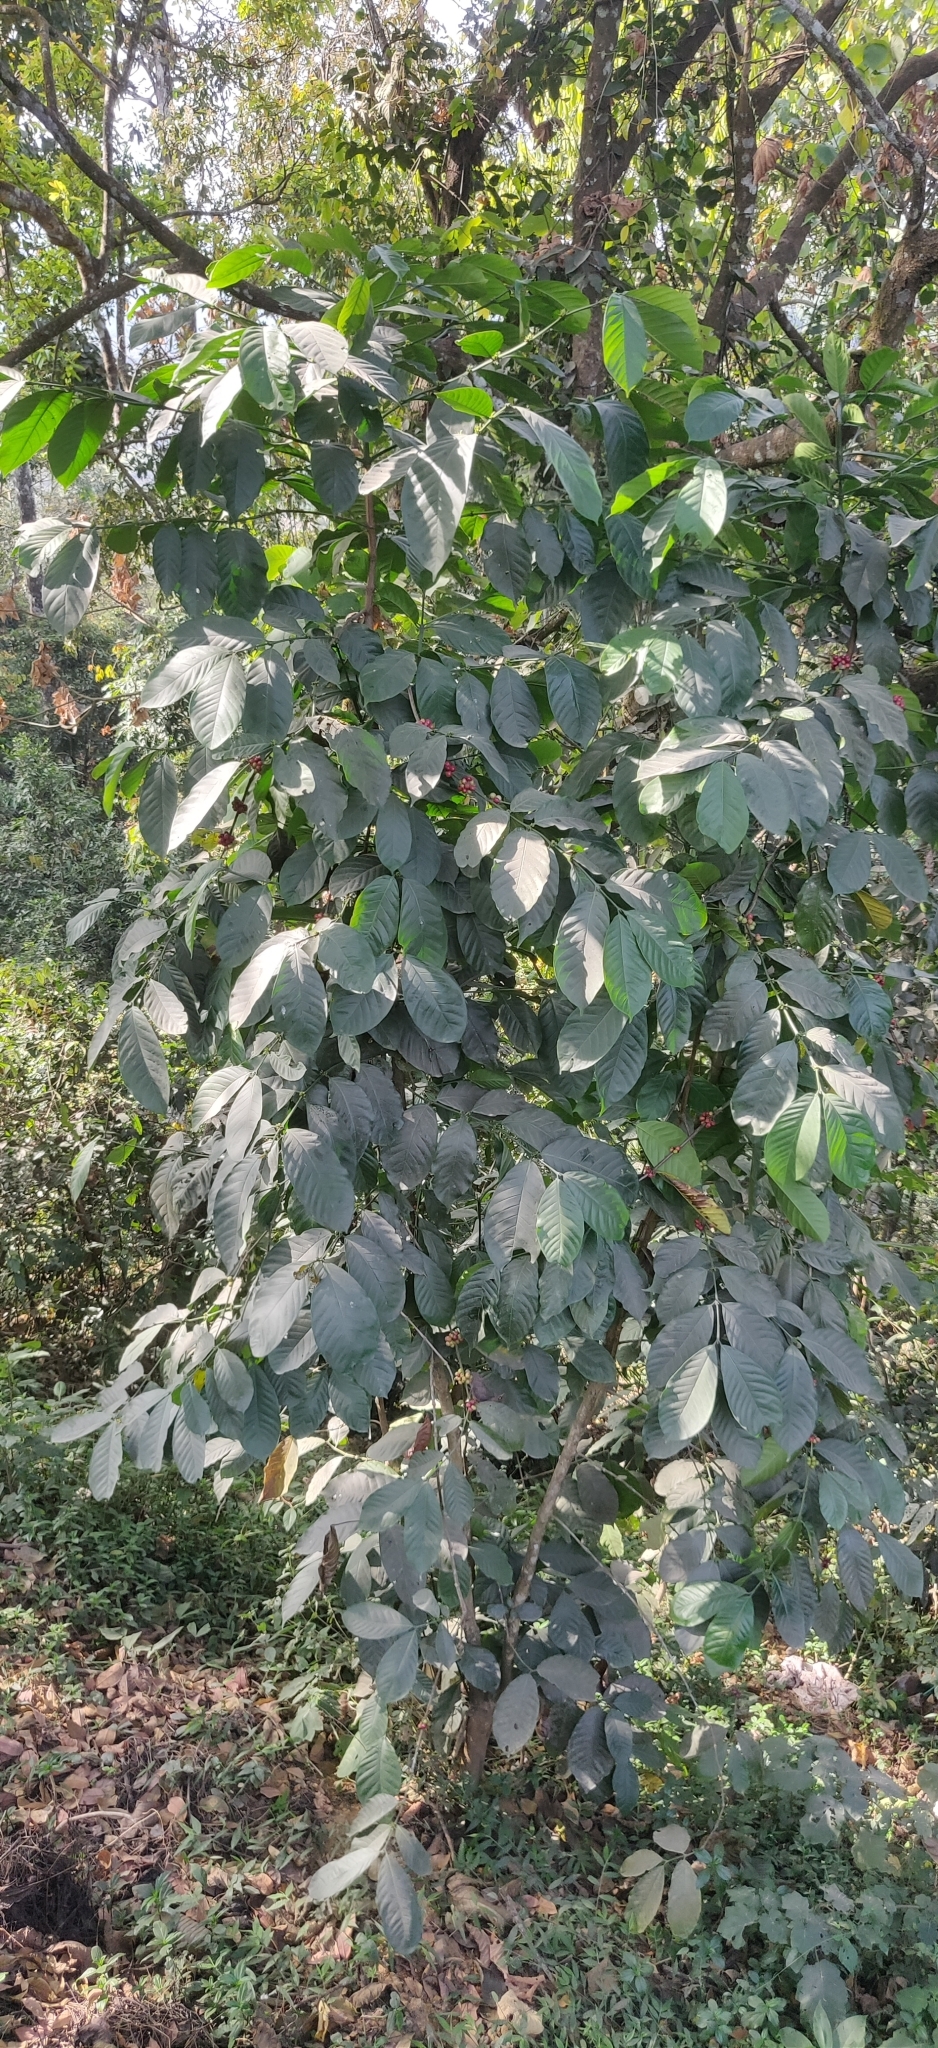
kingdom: Plantae
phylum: Tracheophyta
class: Magnoliopsida
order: Gentianales
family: Rubiaceae
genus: Coffea
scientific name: Coffea canephora
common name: Robusta coffee
